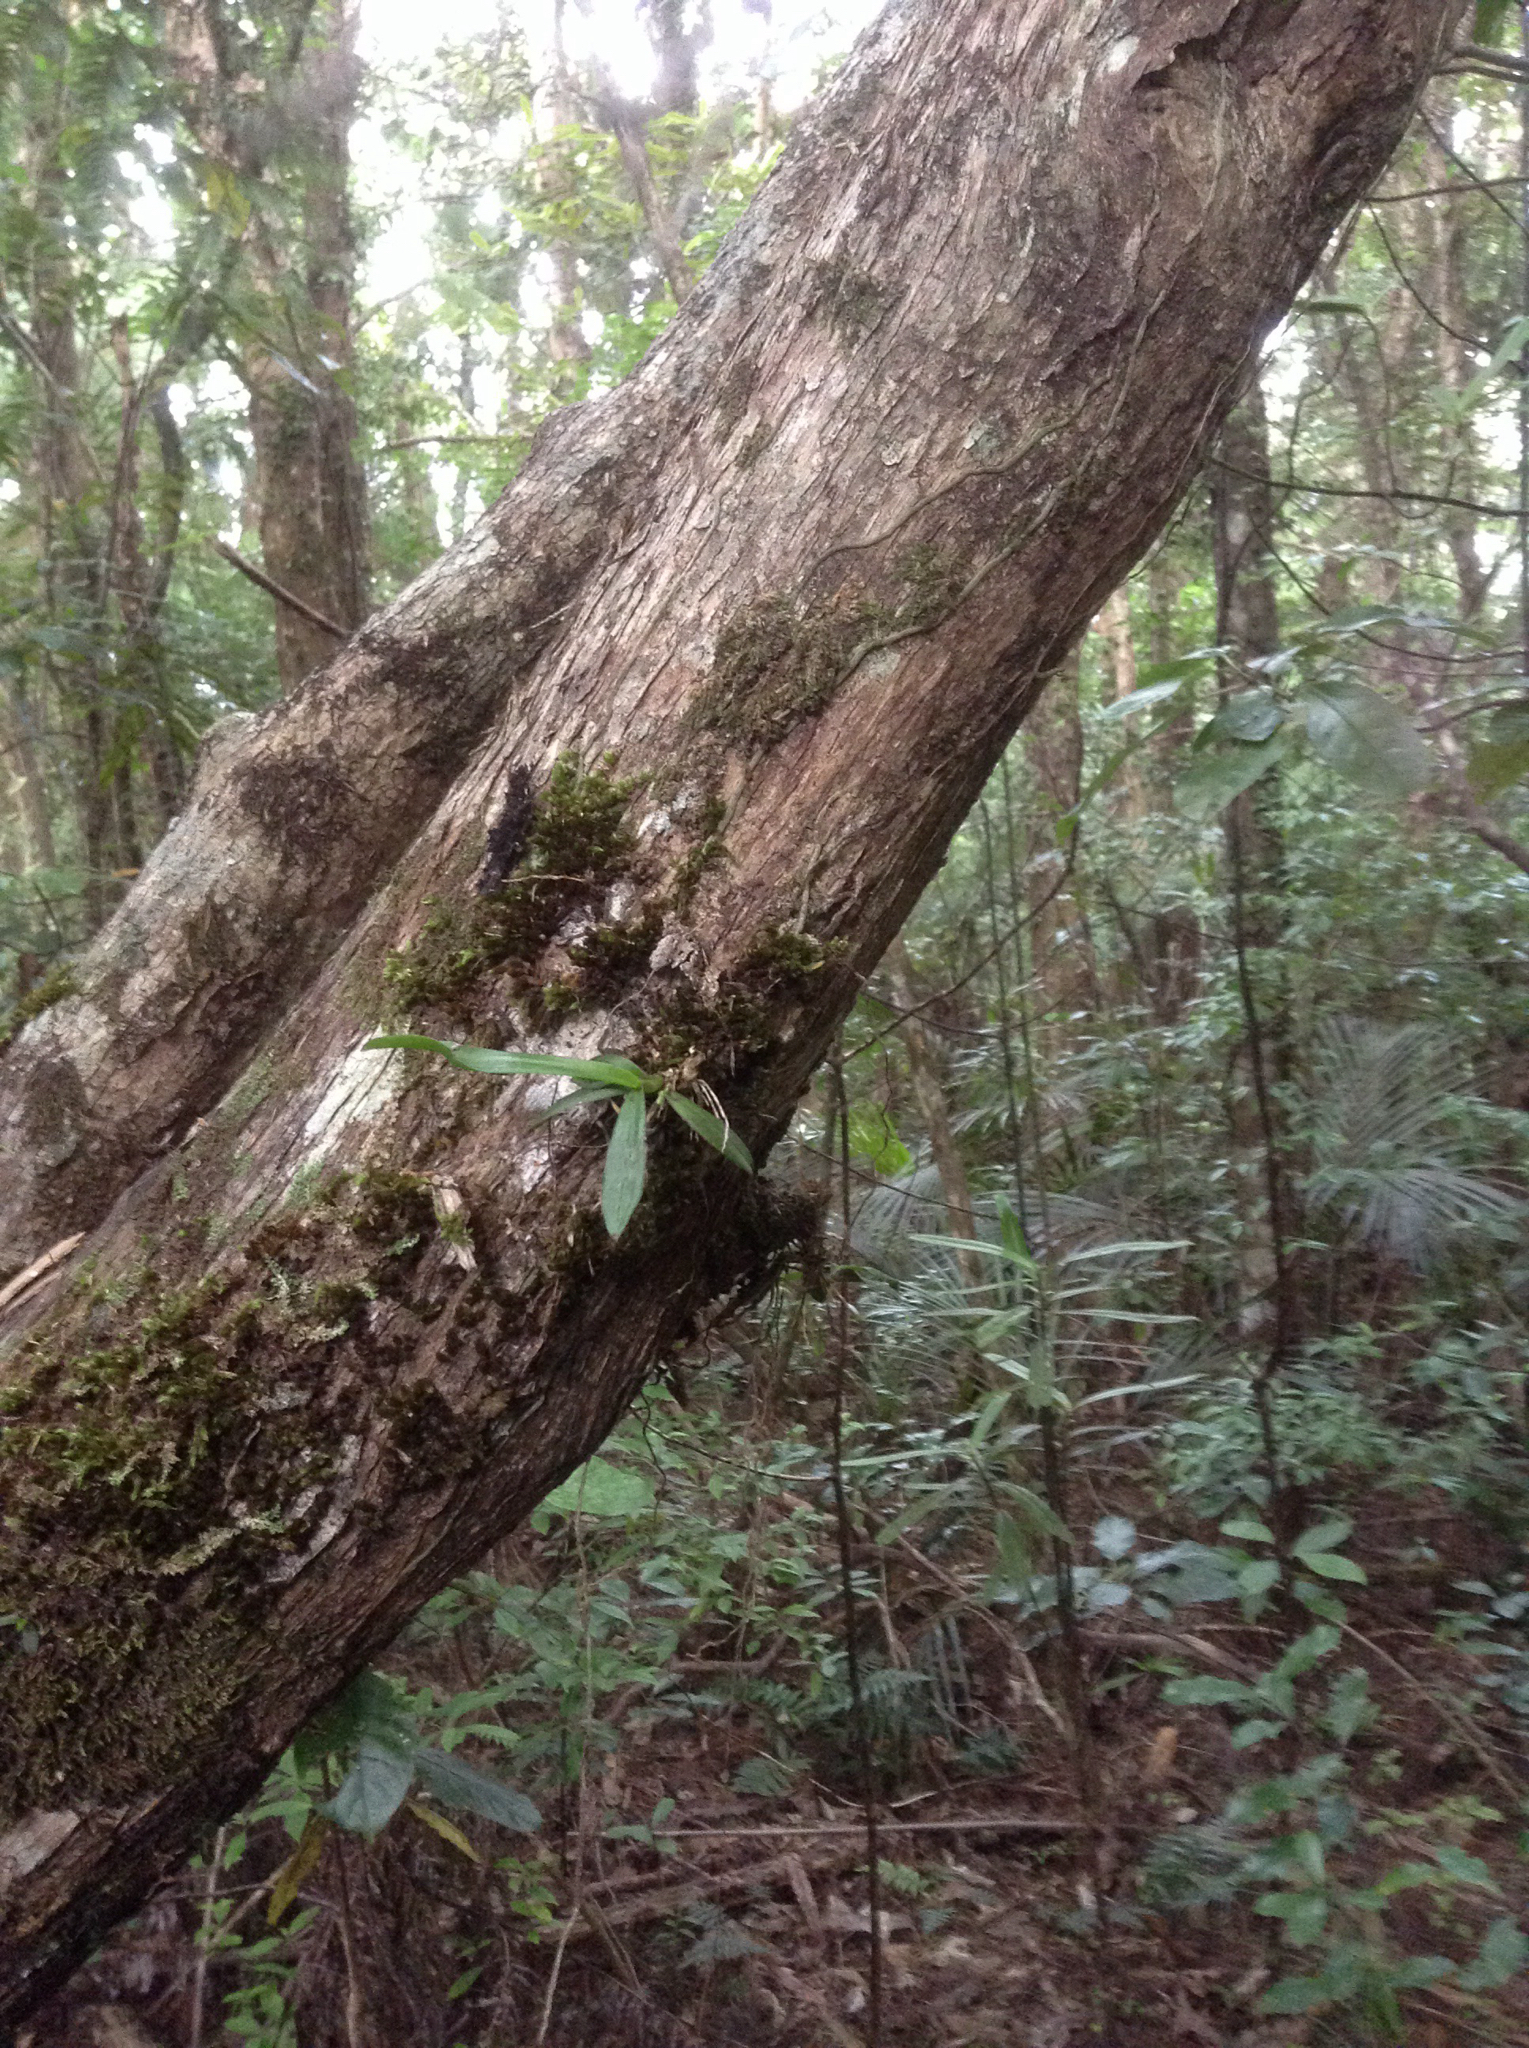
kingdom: Plantae
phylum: Tracheophyta
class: Liliopsida
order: Asparagales
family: Orchidaceae
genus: Drymoanthus
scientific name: Drymoanthus adversus
